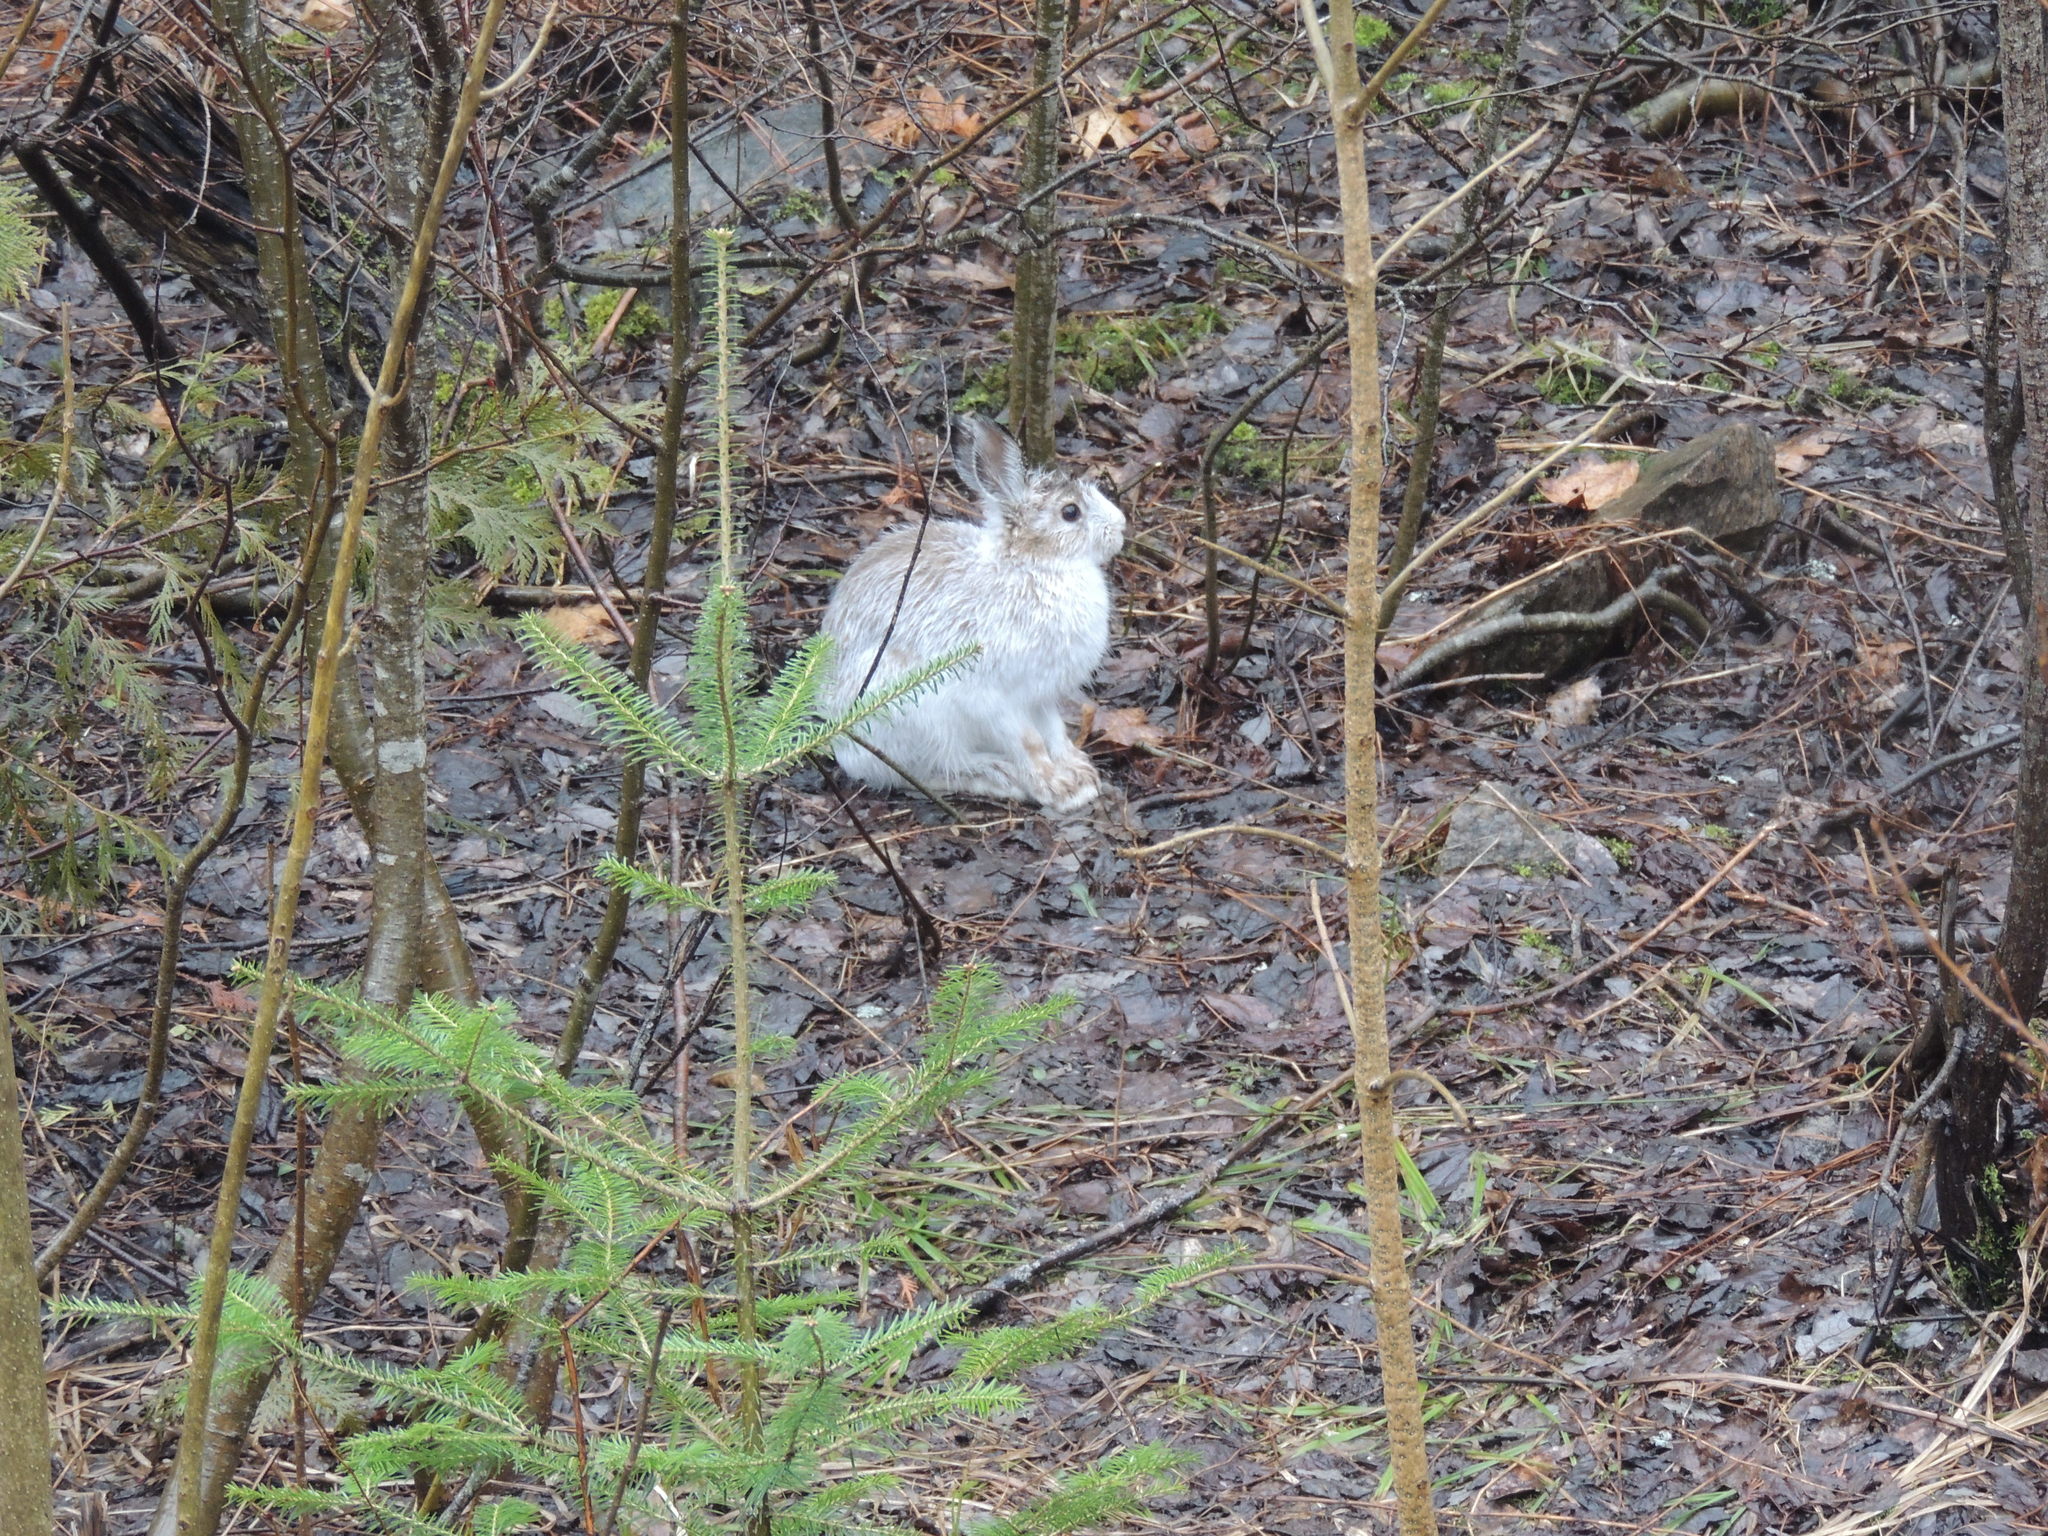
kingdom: Animalia
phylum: Chordata
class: Mammalia
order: Lagomorpha
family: Leporidae
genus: Lepus
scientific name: Lepus americanus
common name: Snowshoe hare
